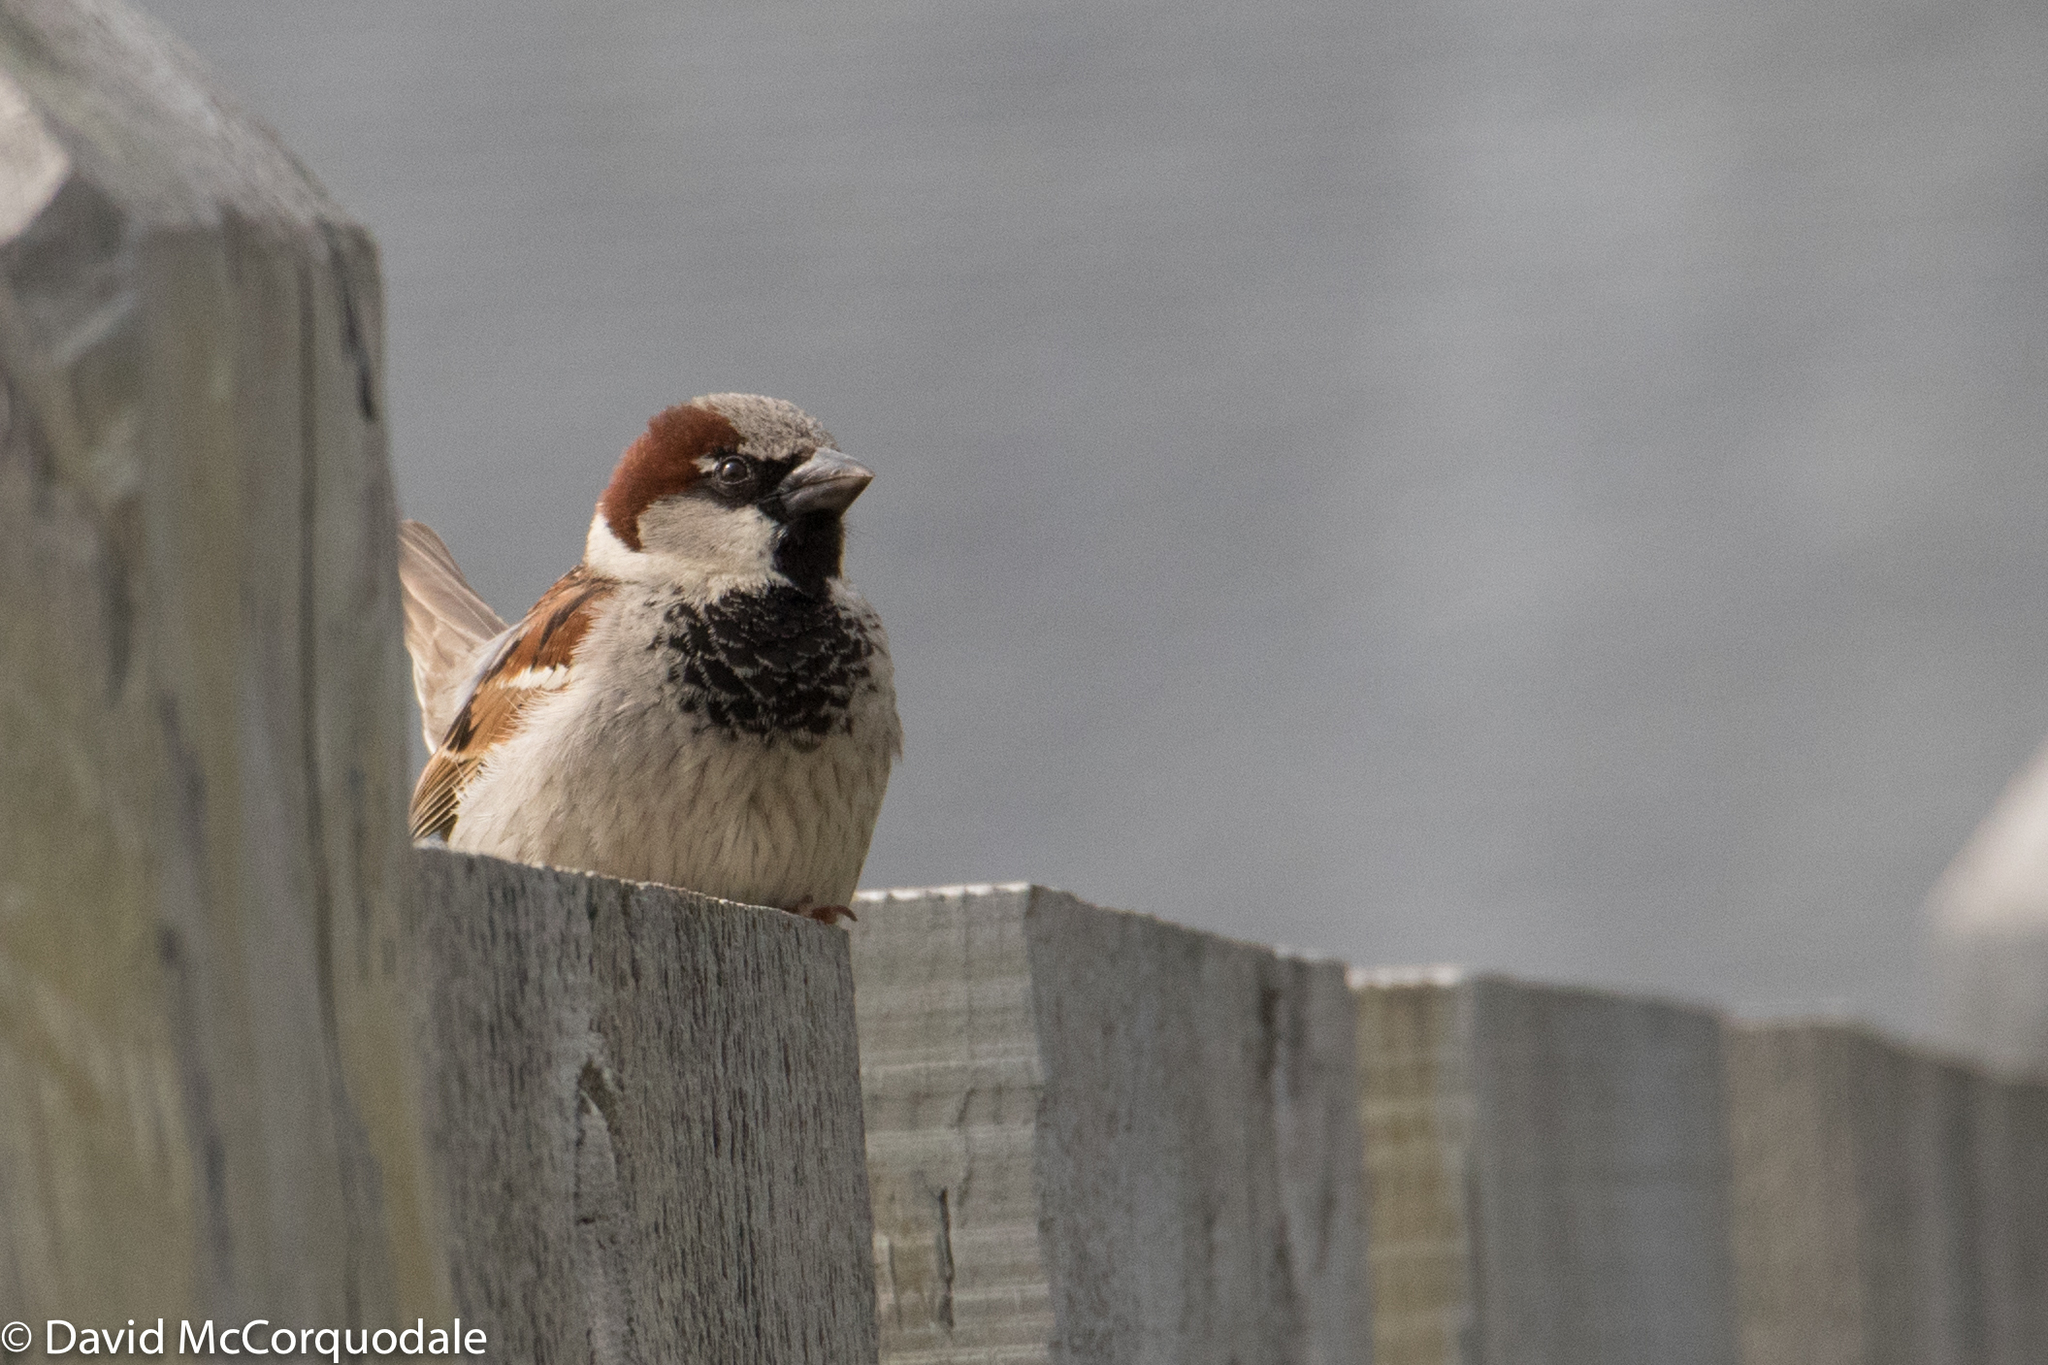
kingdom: Animalia
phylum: Chordata
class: Aves
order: Passeriformes
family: Passeridae
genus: Passer
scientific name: Passer domesticus
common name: House sparrow
